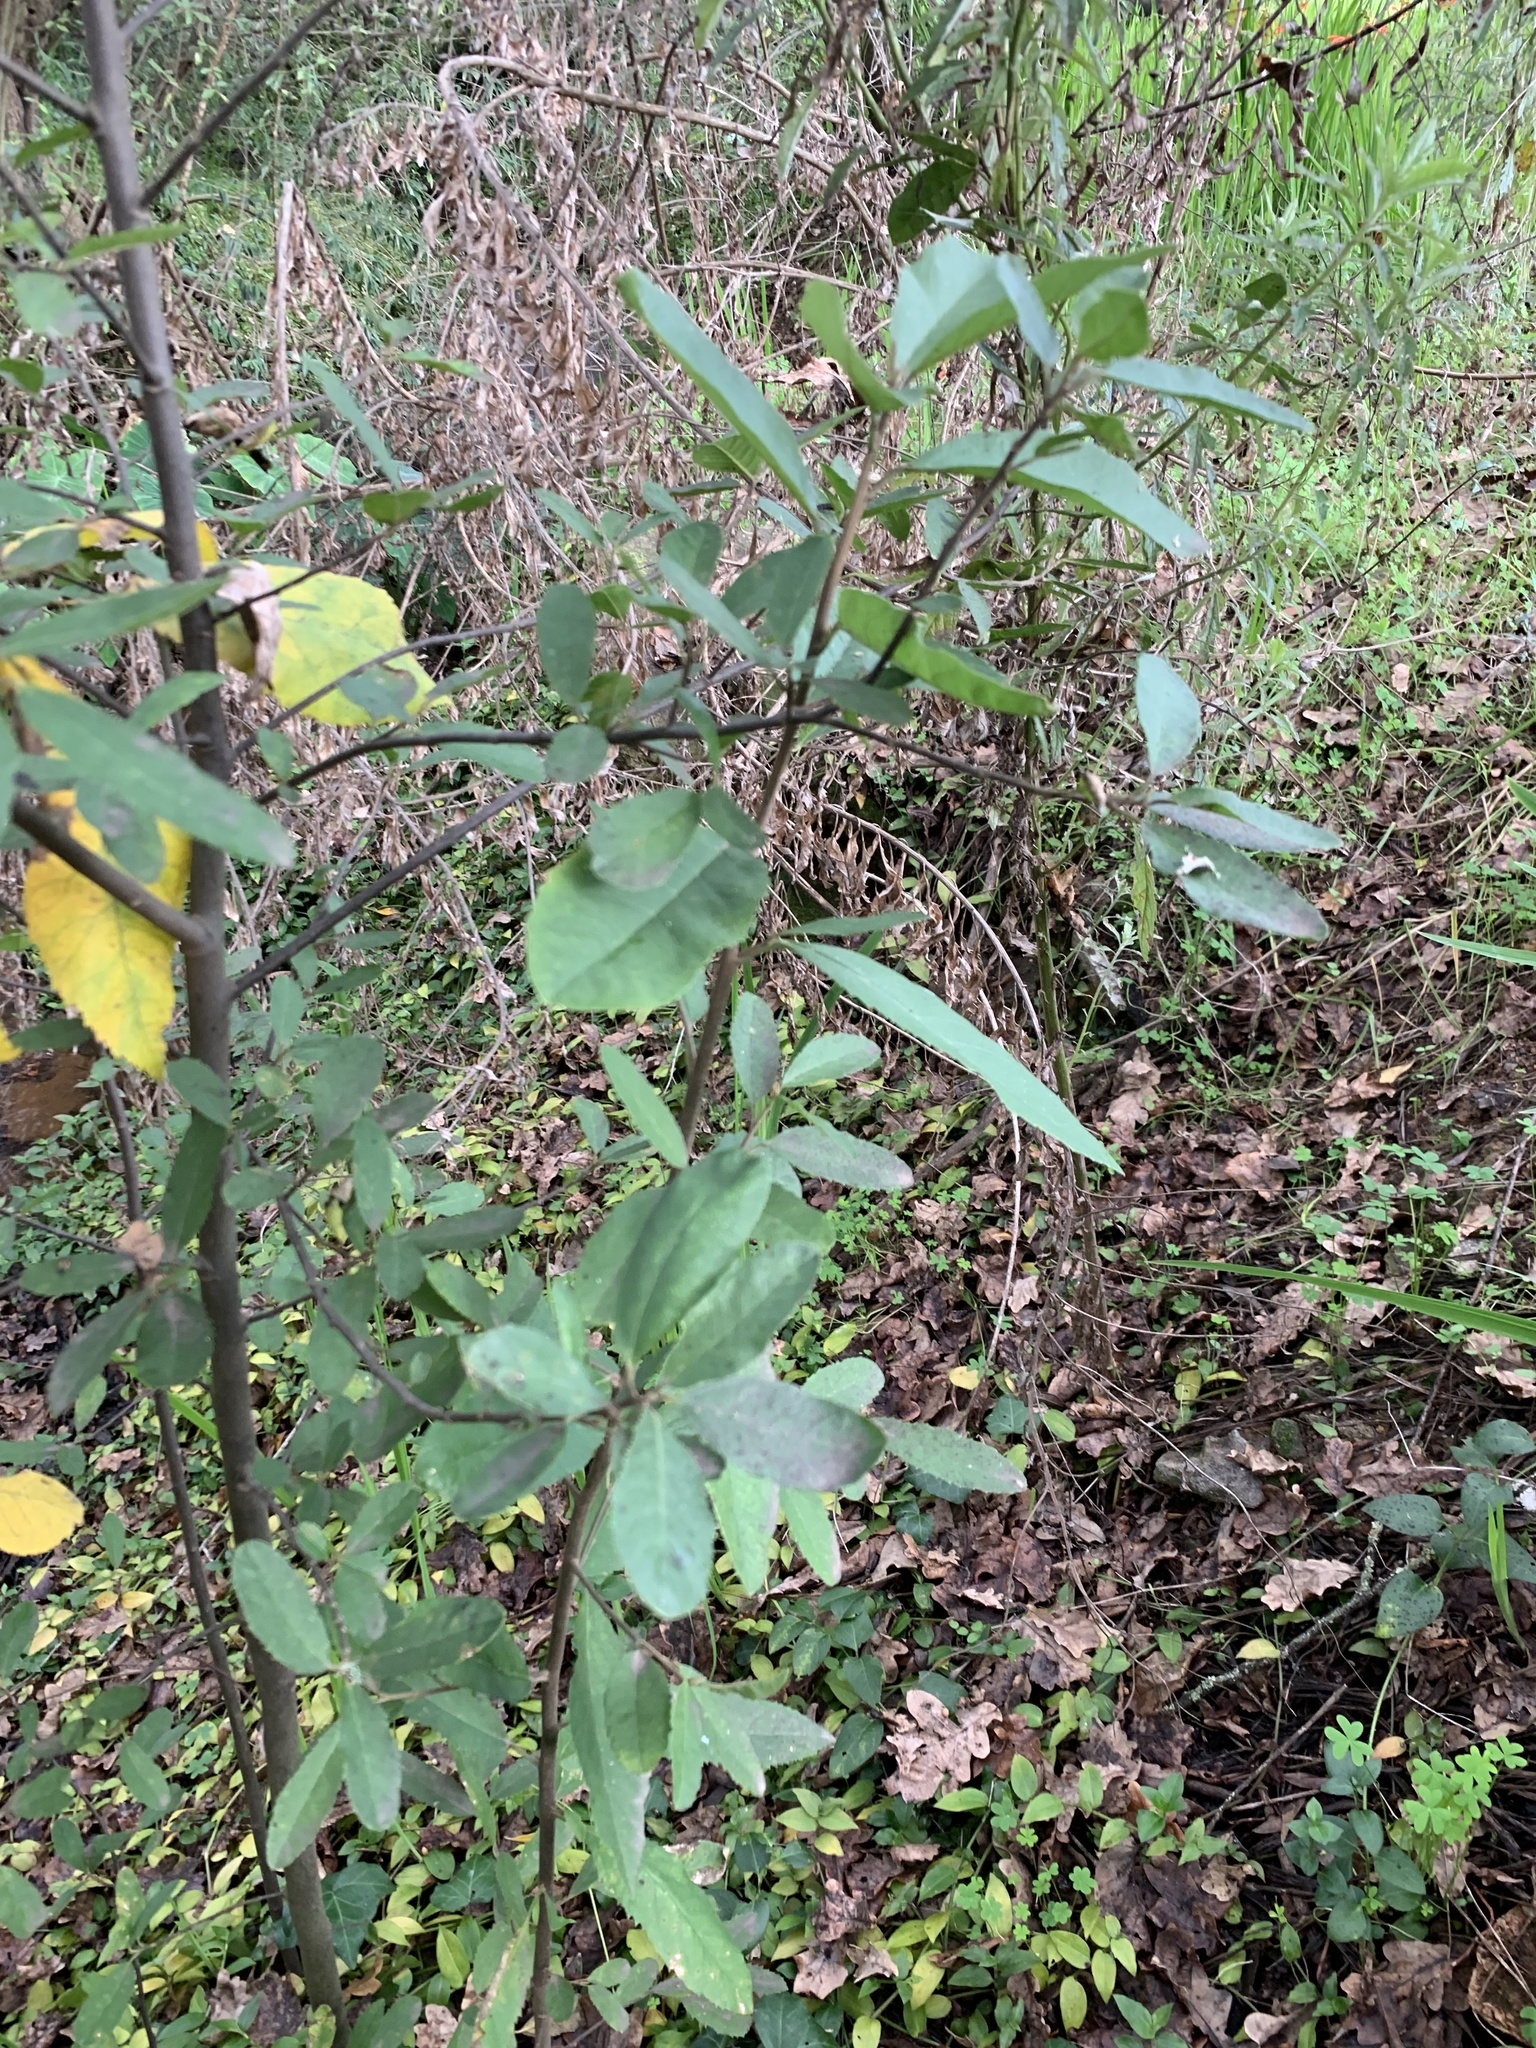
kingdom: Plantae
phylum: Tracheophyta
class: Magnoliopsida
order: Malpighiales
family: Achariaceae
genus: Kiggelaria
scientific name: Kiggelaria africana
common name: Wild peach
